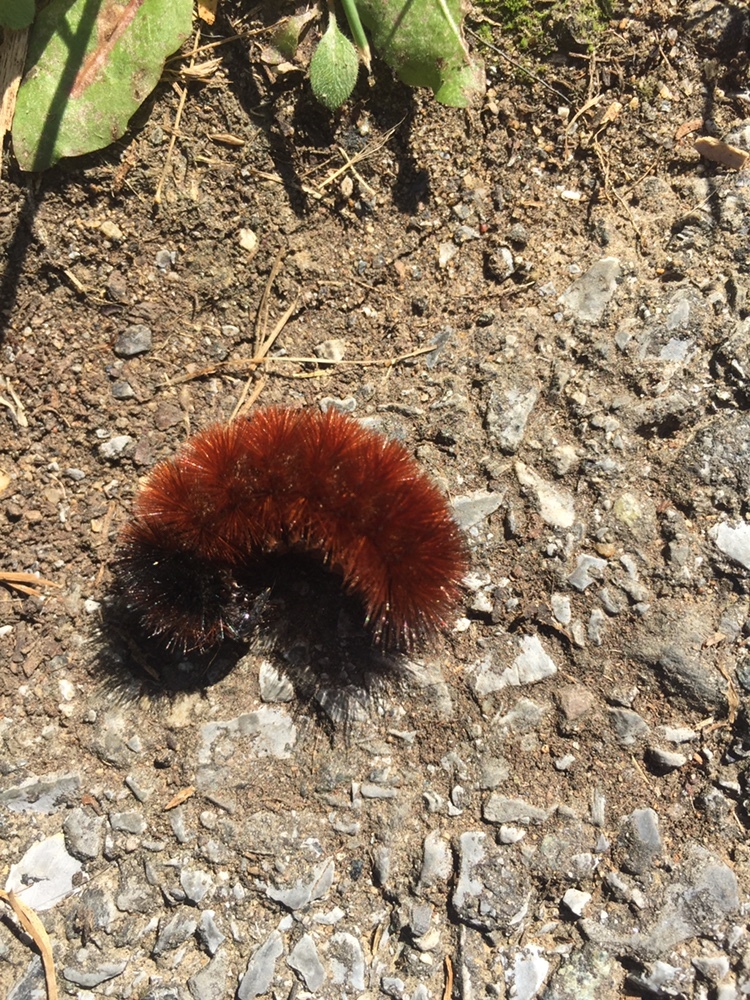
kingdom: Animalia
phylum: Arthropoda
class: Insecta
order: Lepidoptera
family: Erebidae
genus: Pyrrharctia
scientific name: Pyrrharctia isabella
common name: Isabella tiger moth
